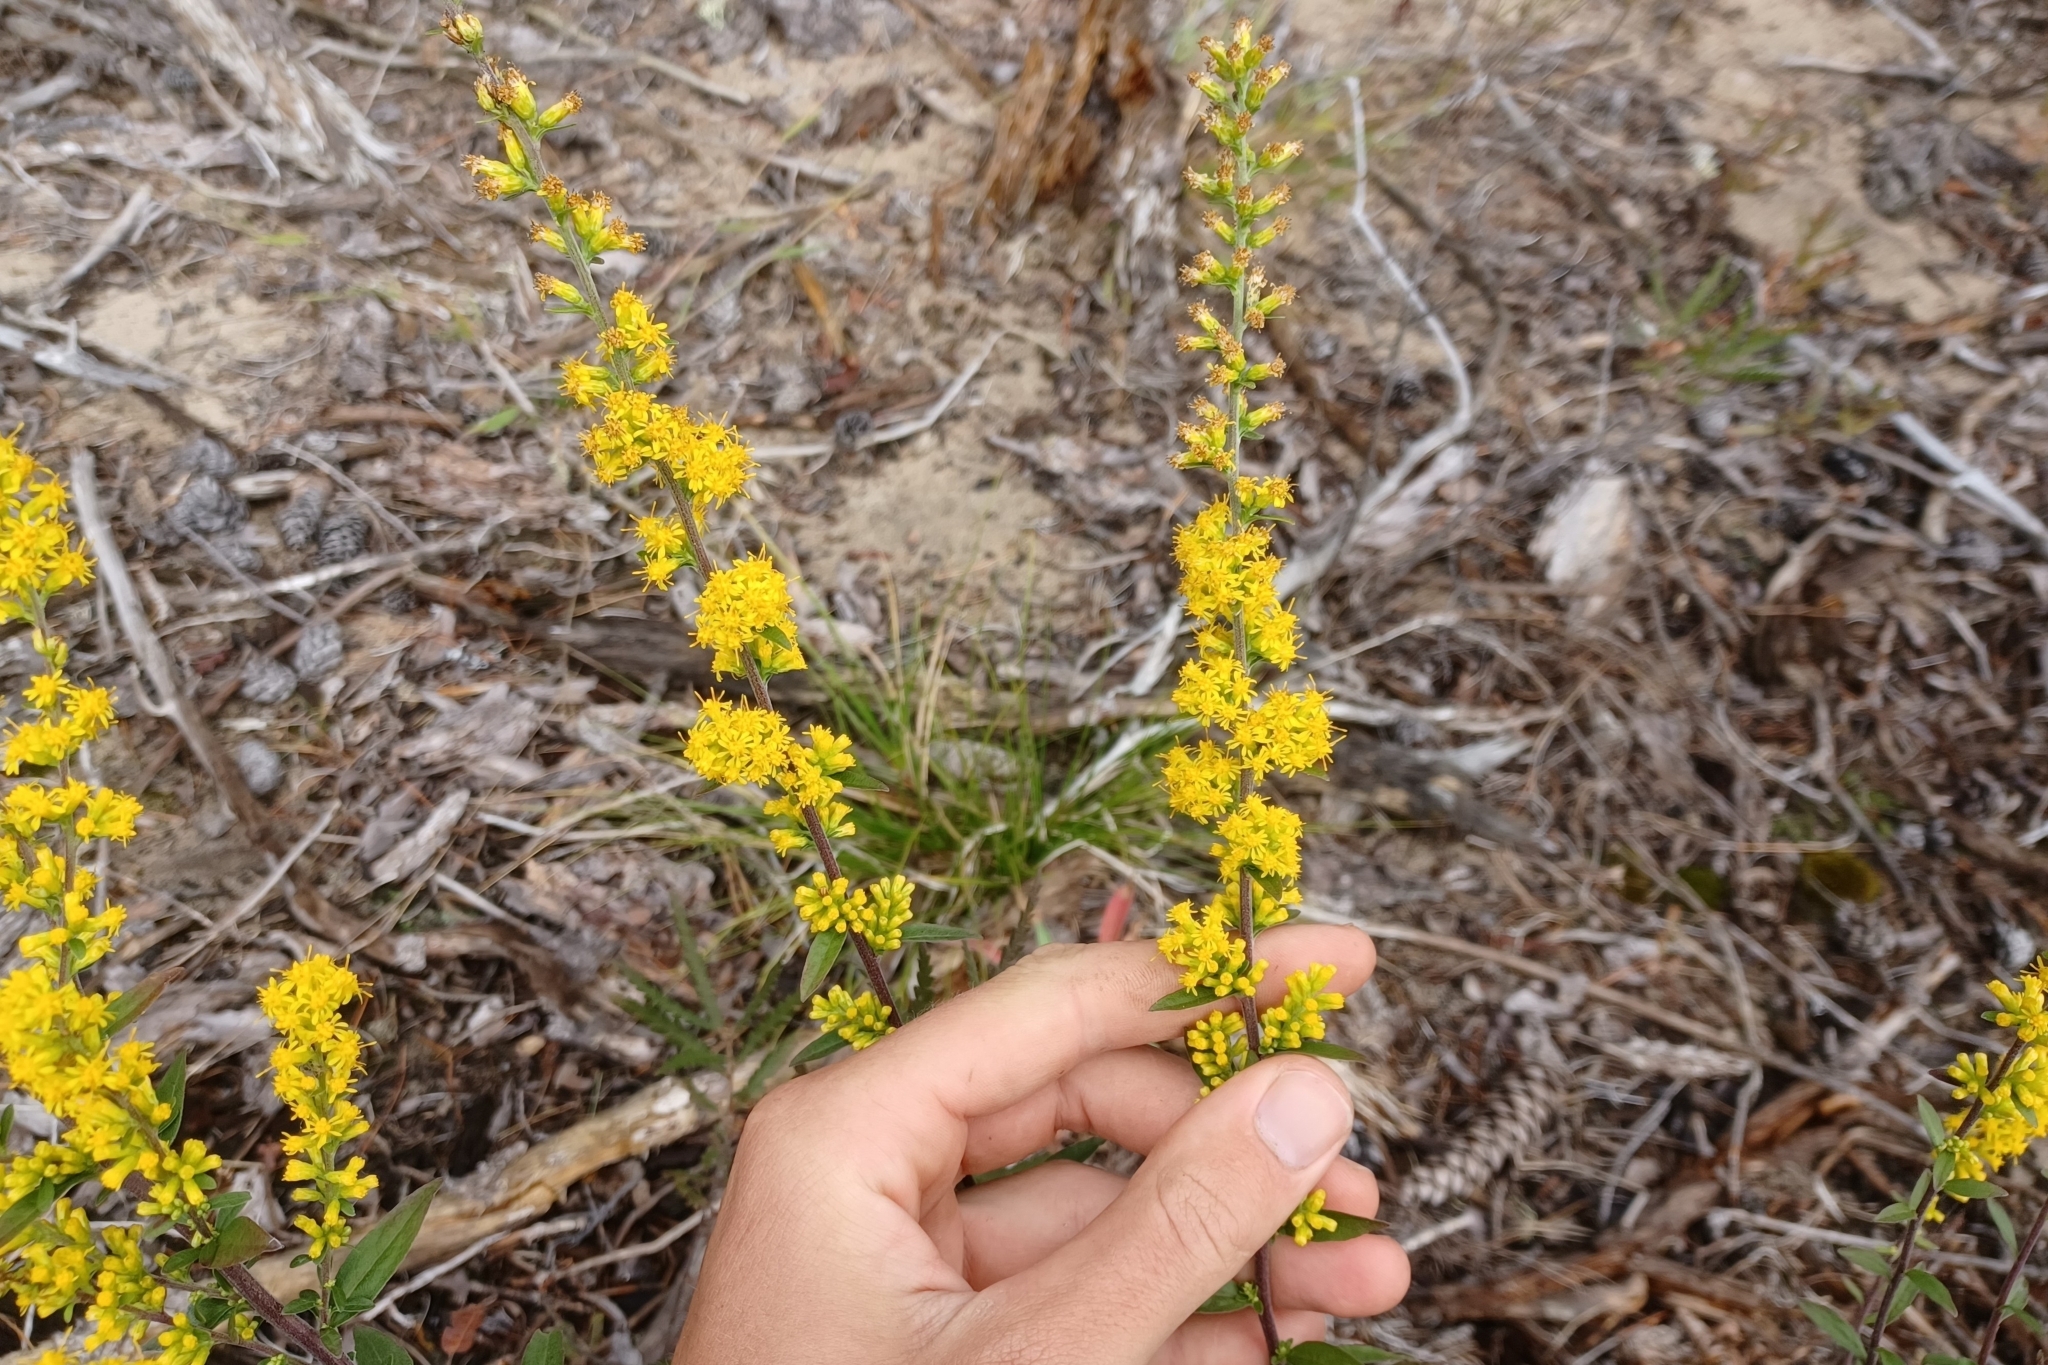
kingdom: Plantae
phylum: Tracheophyta
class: Magnoliopsida
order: Asterales
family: Asteraceae
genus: Solidago
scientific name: Solidago hispida
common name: Hairy goldenrod
